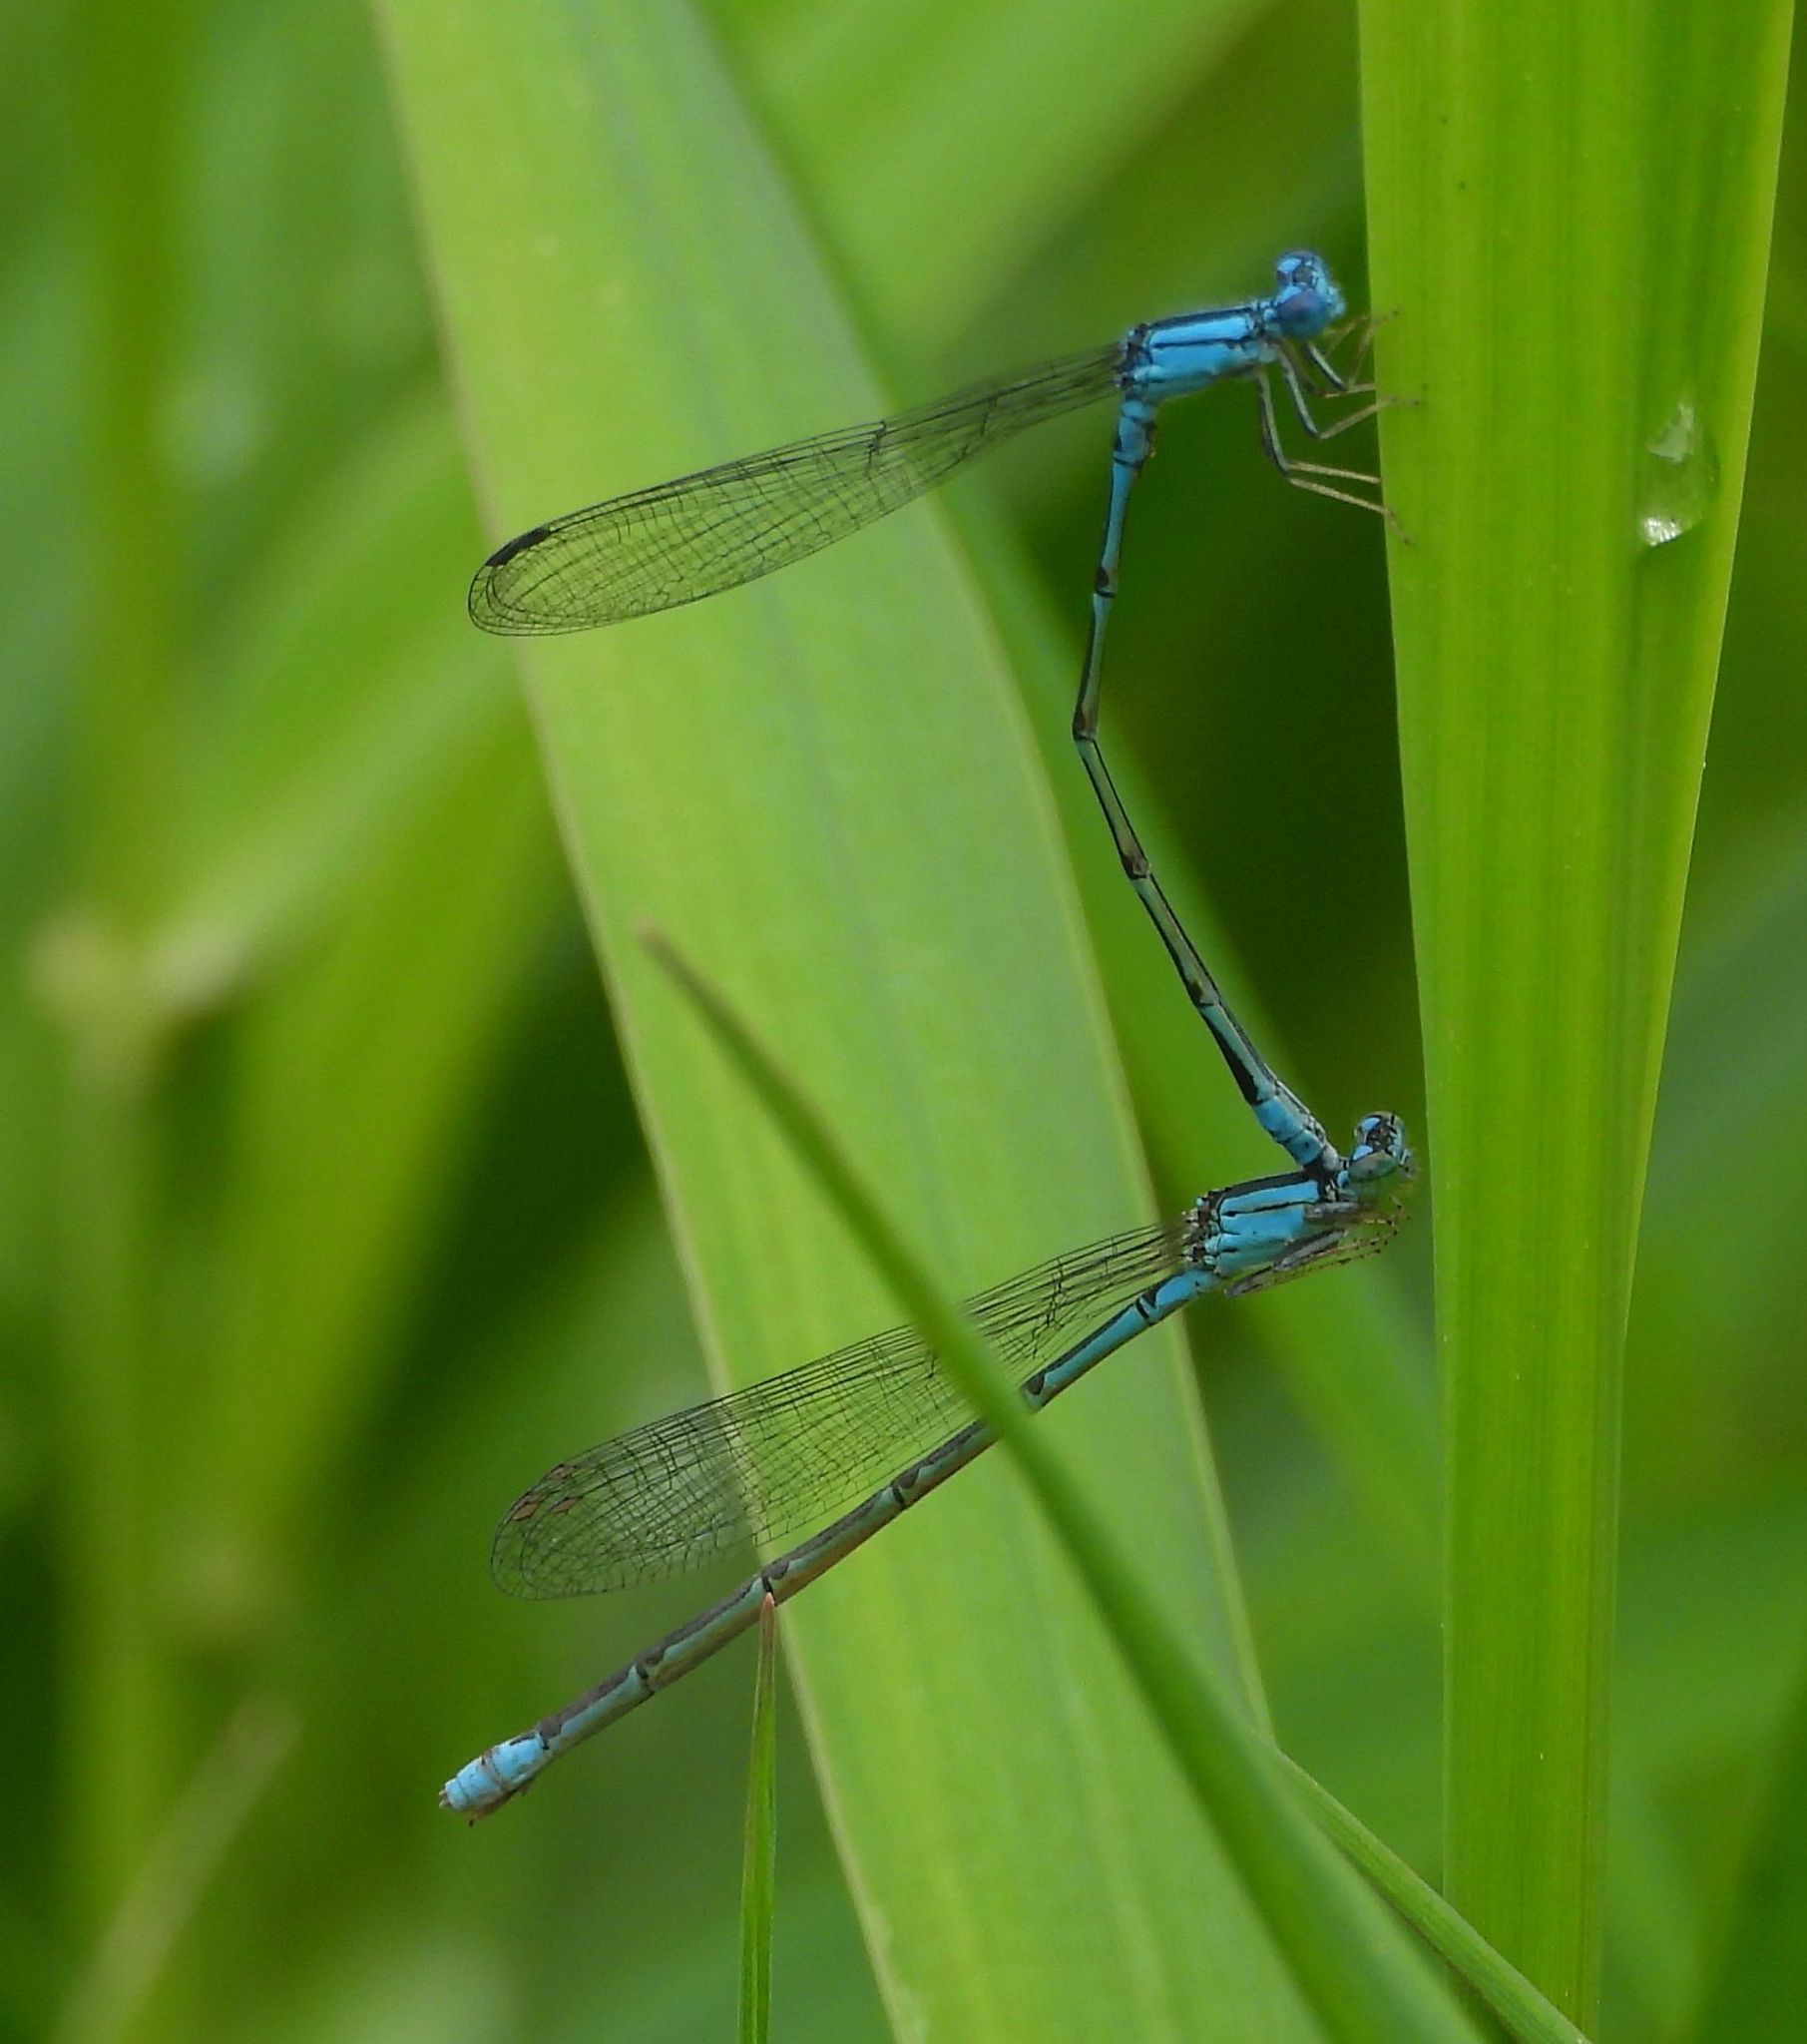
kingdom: Animalia
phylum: Arthropoda
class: Insecta
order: Odonata
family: Coenagrionidae
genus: Enallagma
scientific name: Enallagma traviatum
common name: Slender bluet
